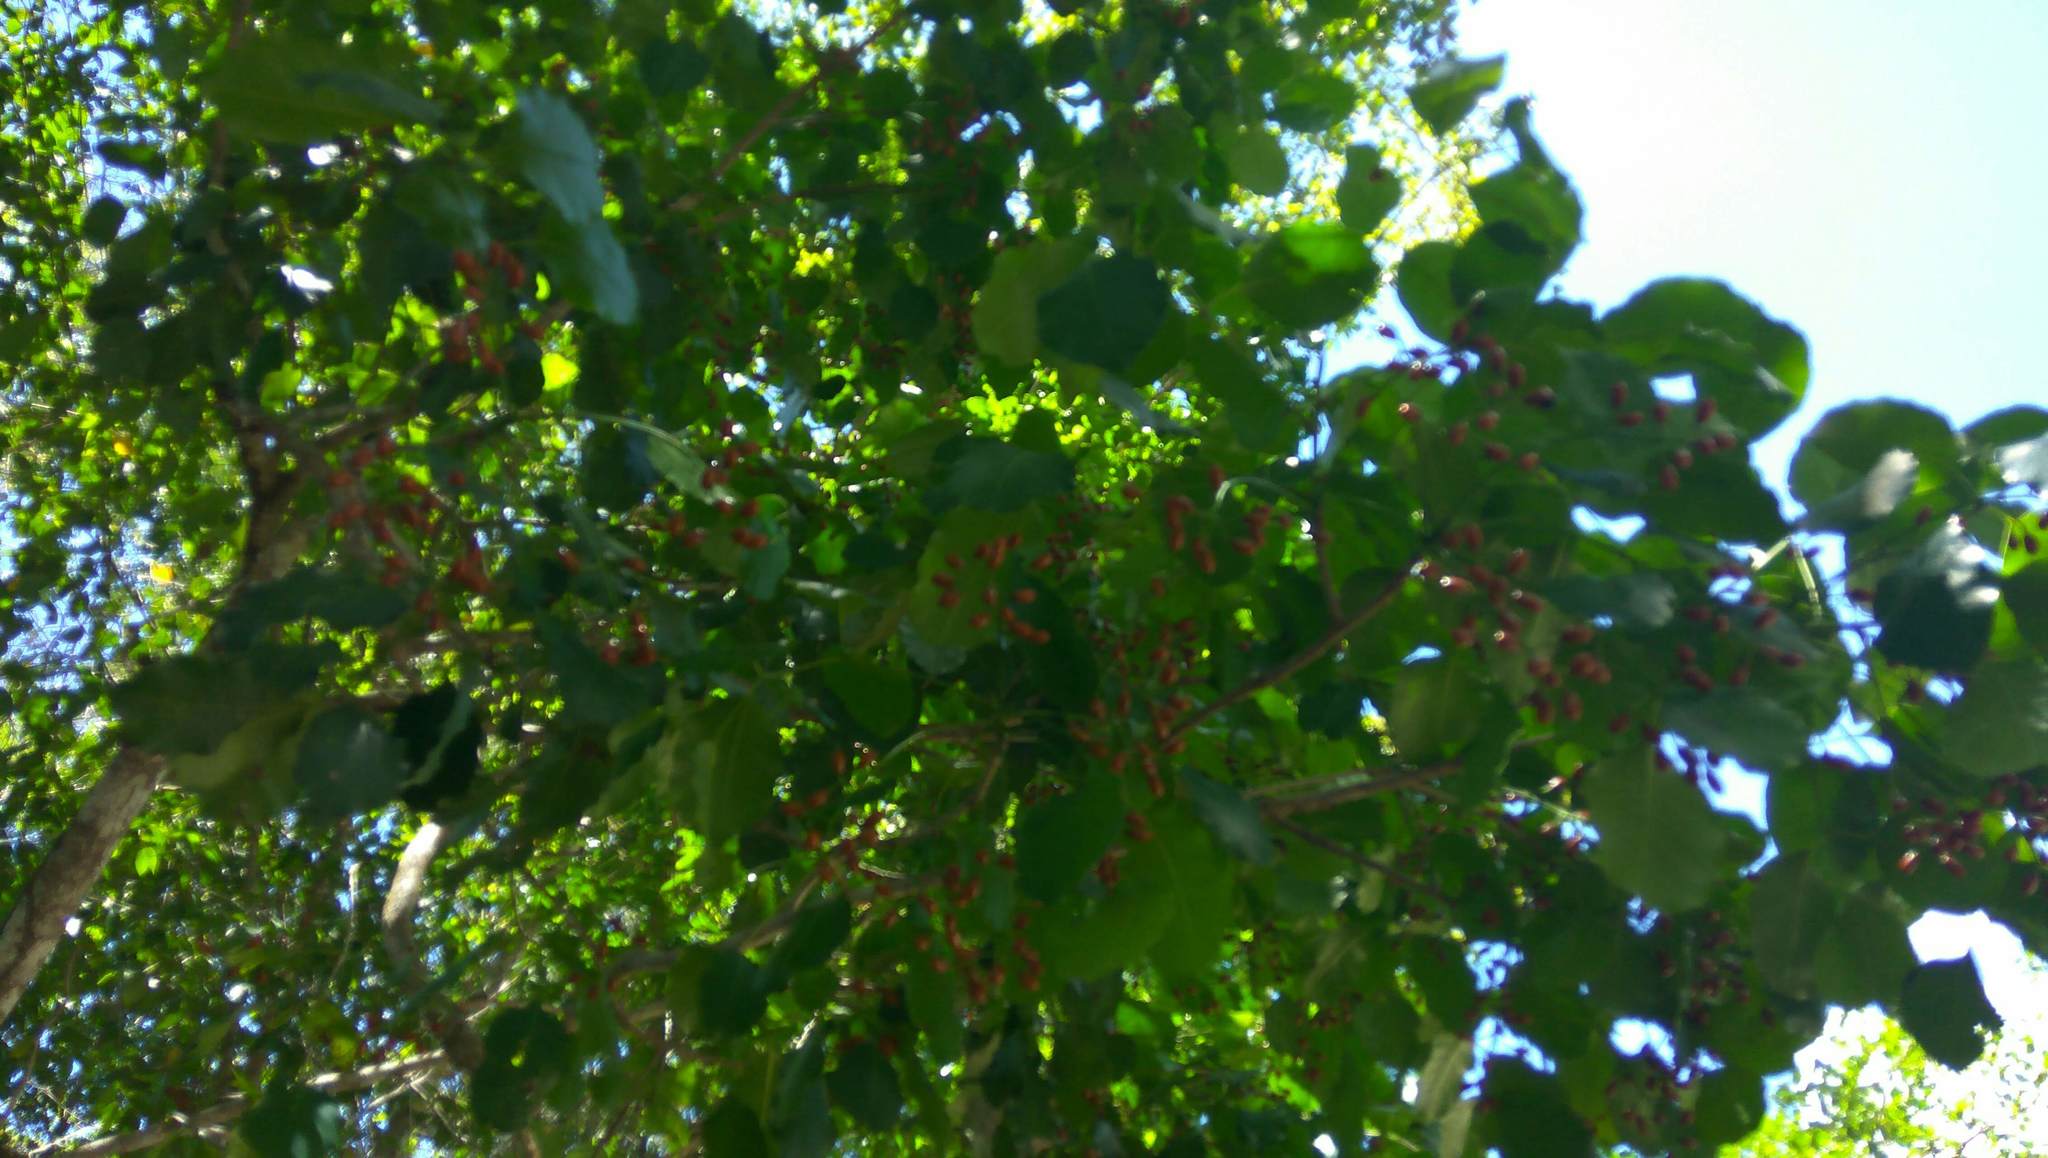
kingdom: Plantae
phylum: Tracheophyta
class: Magnoliopsida
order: Sapindales
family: Anacardiaceae
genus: Metopium
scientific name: Metopium brownei
